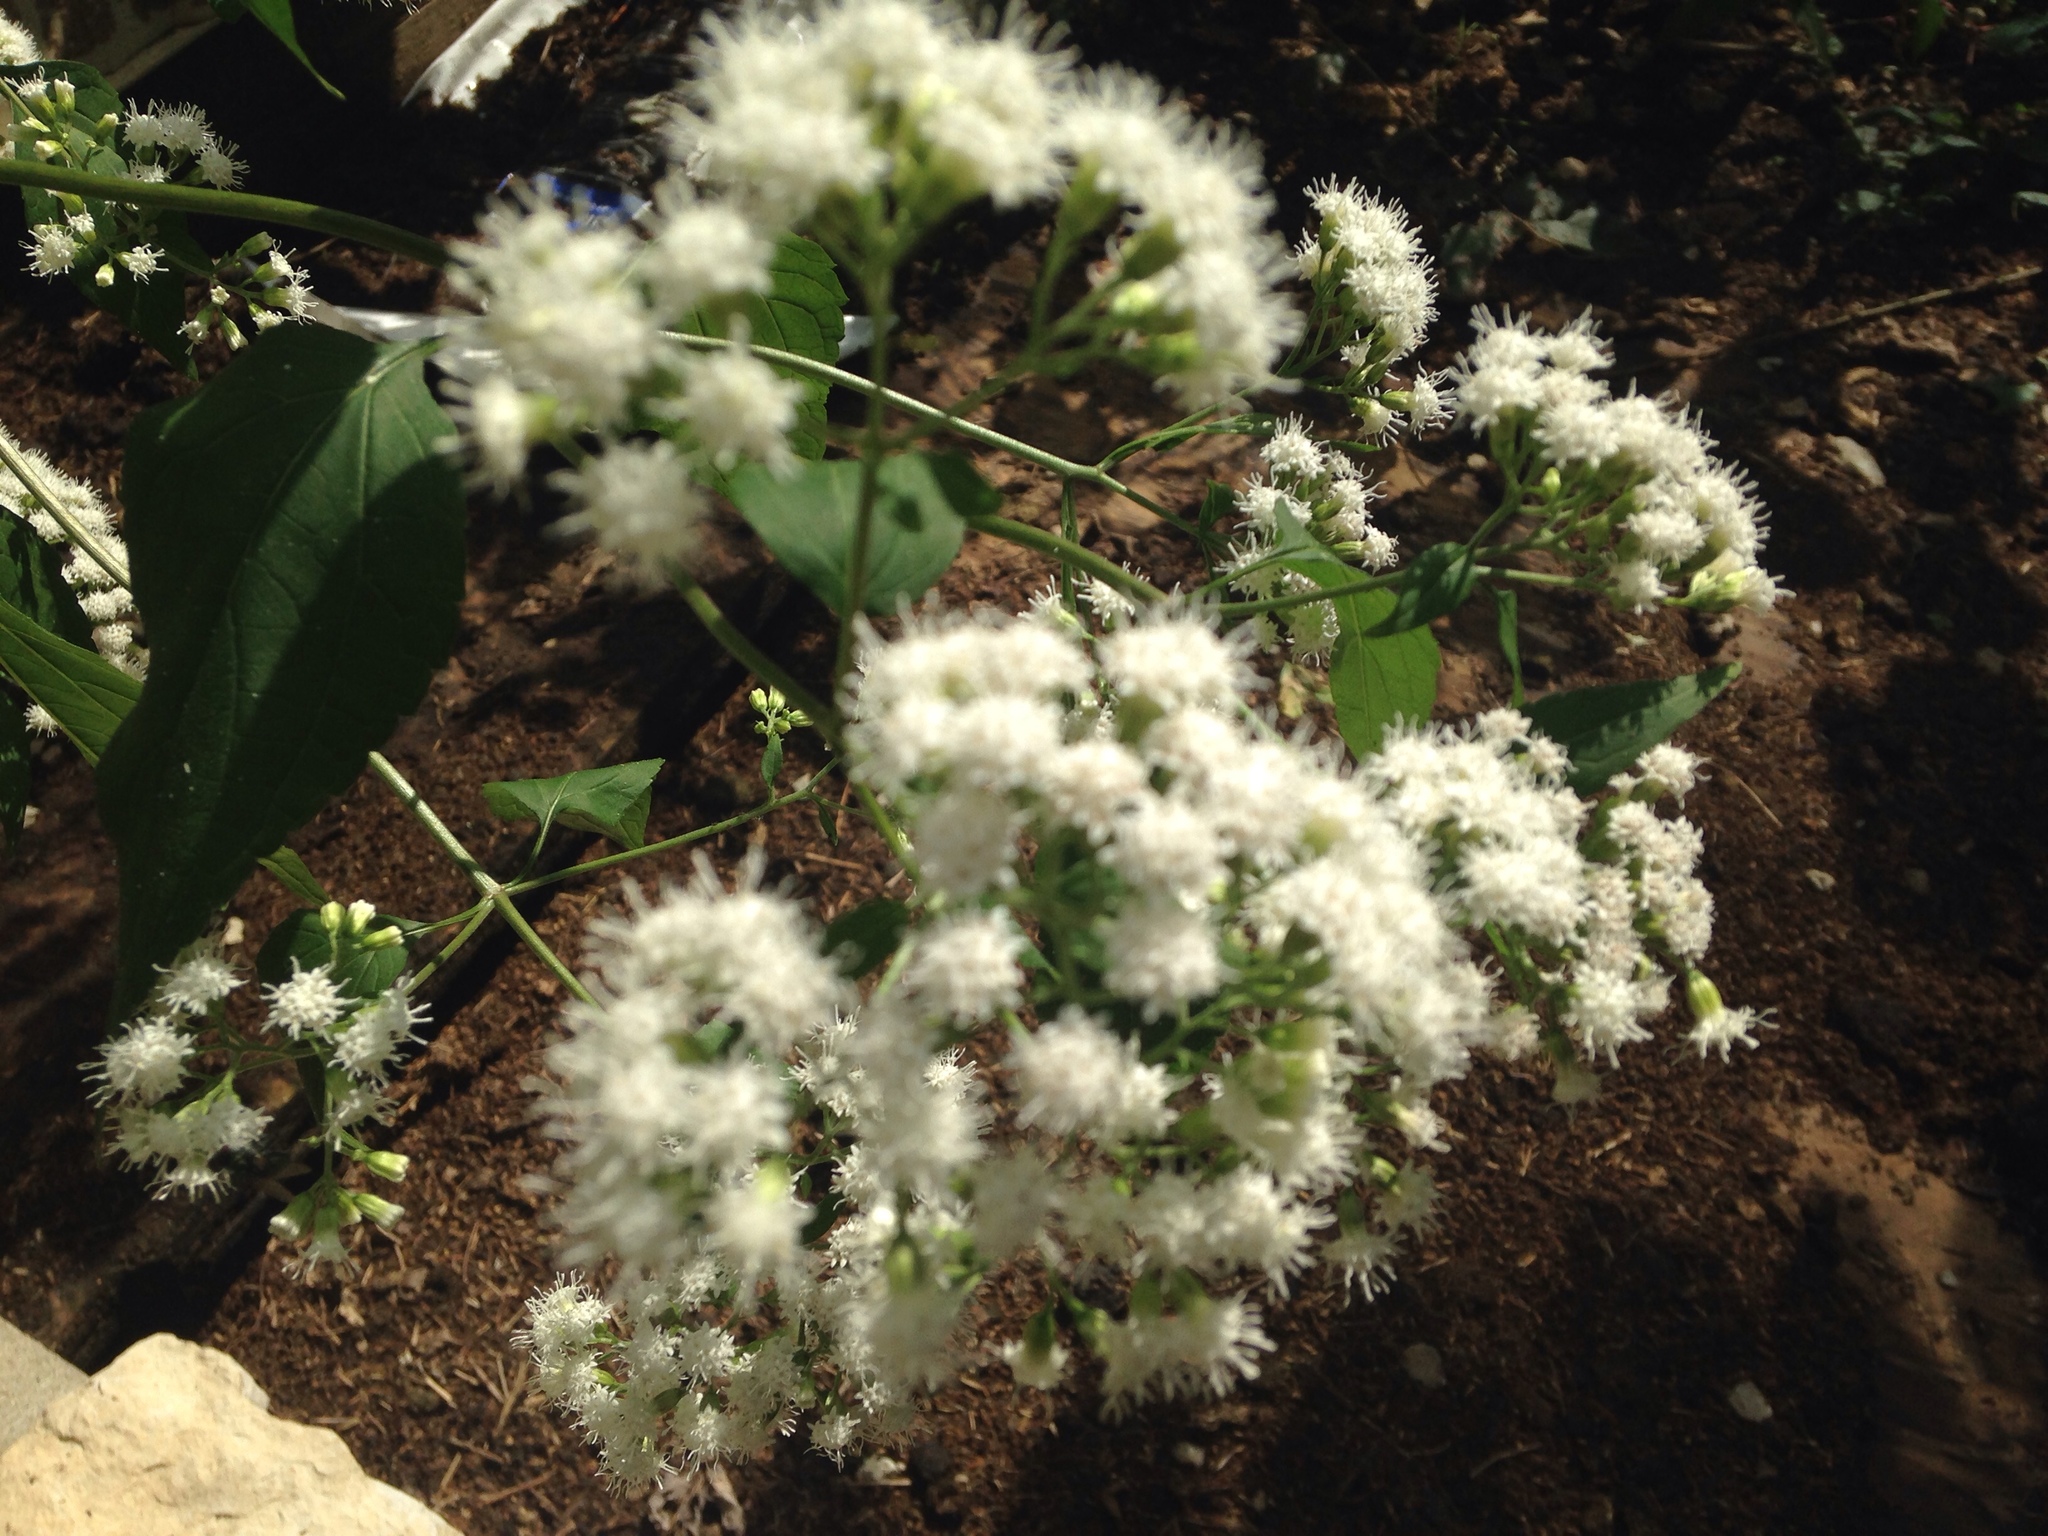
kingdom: Plantae
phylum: Tracheophyta
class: Magnoliopsida
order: Asterales
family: Asteraceae
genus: Ageratina
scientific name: Ageratina altissima
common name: White snakeroot
